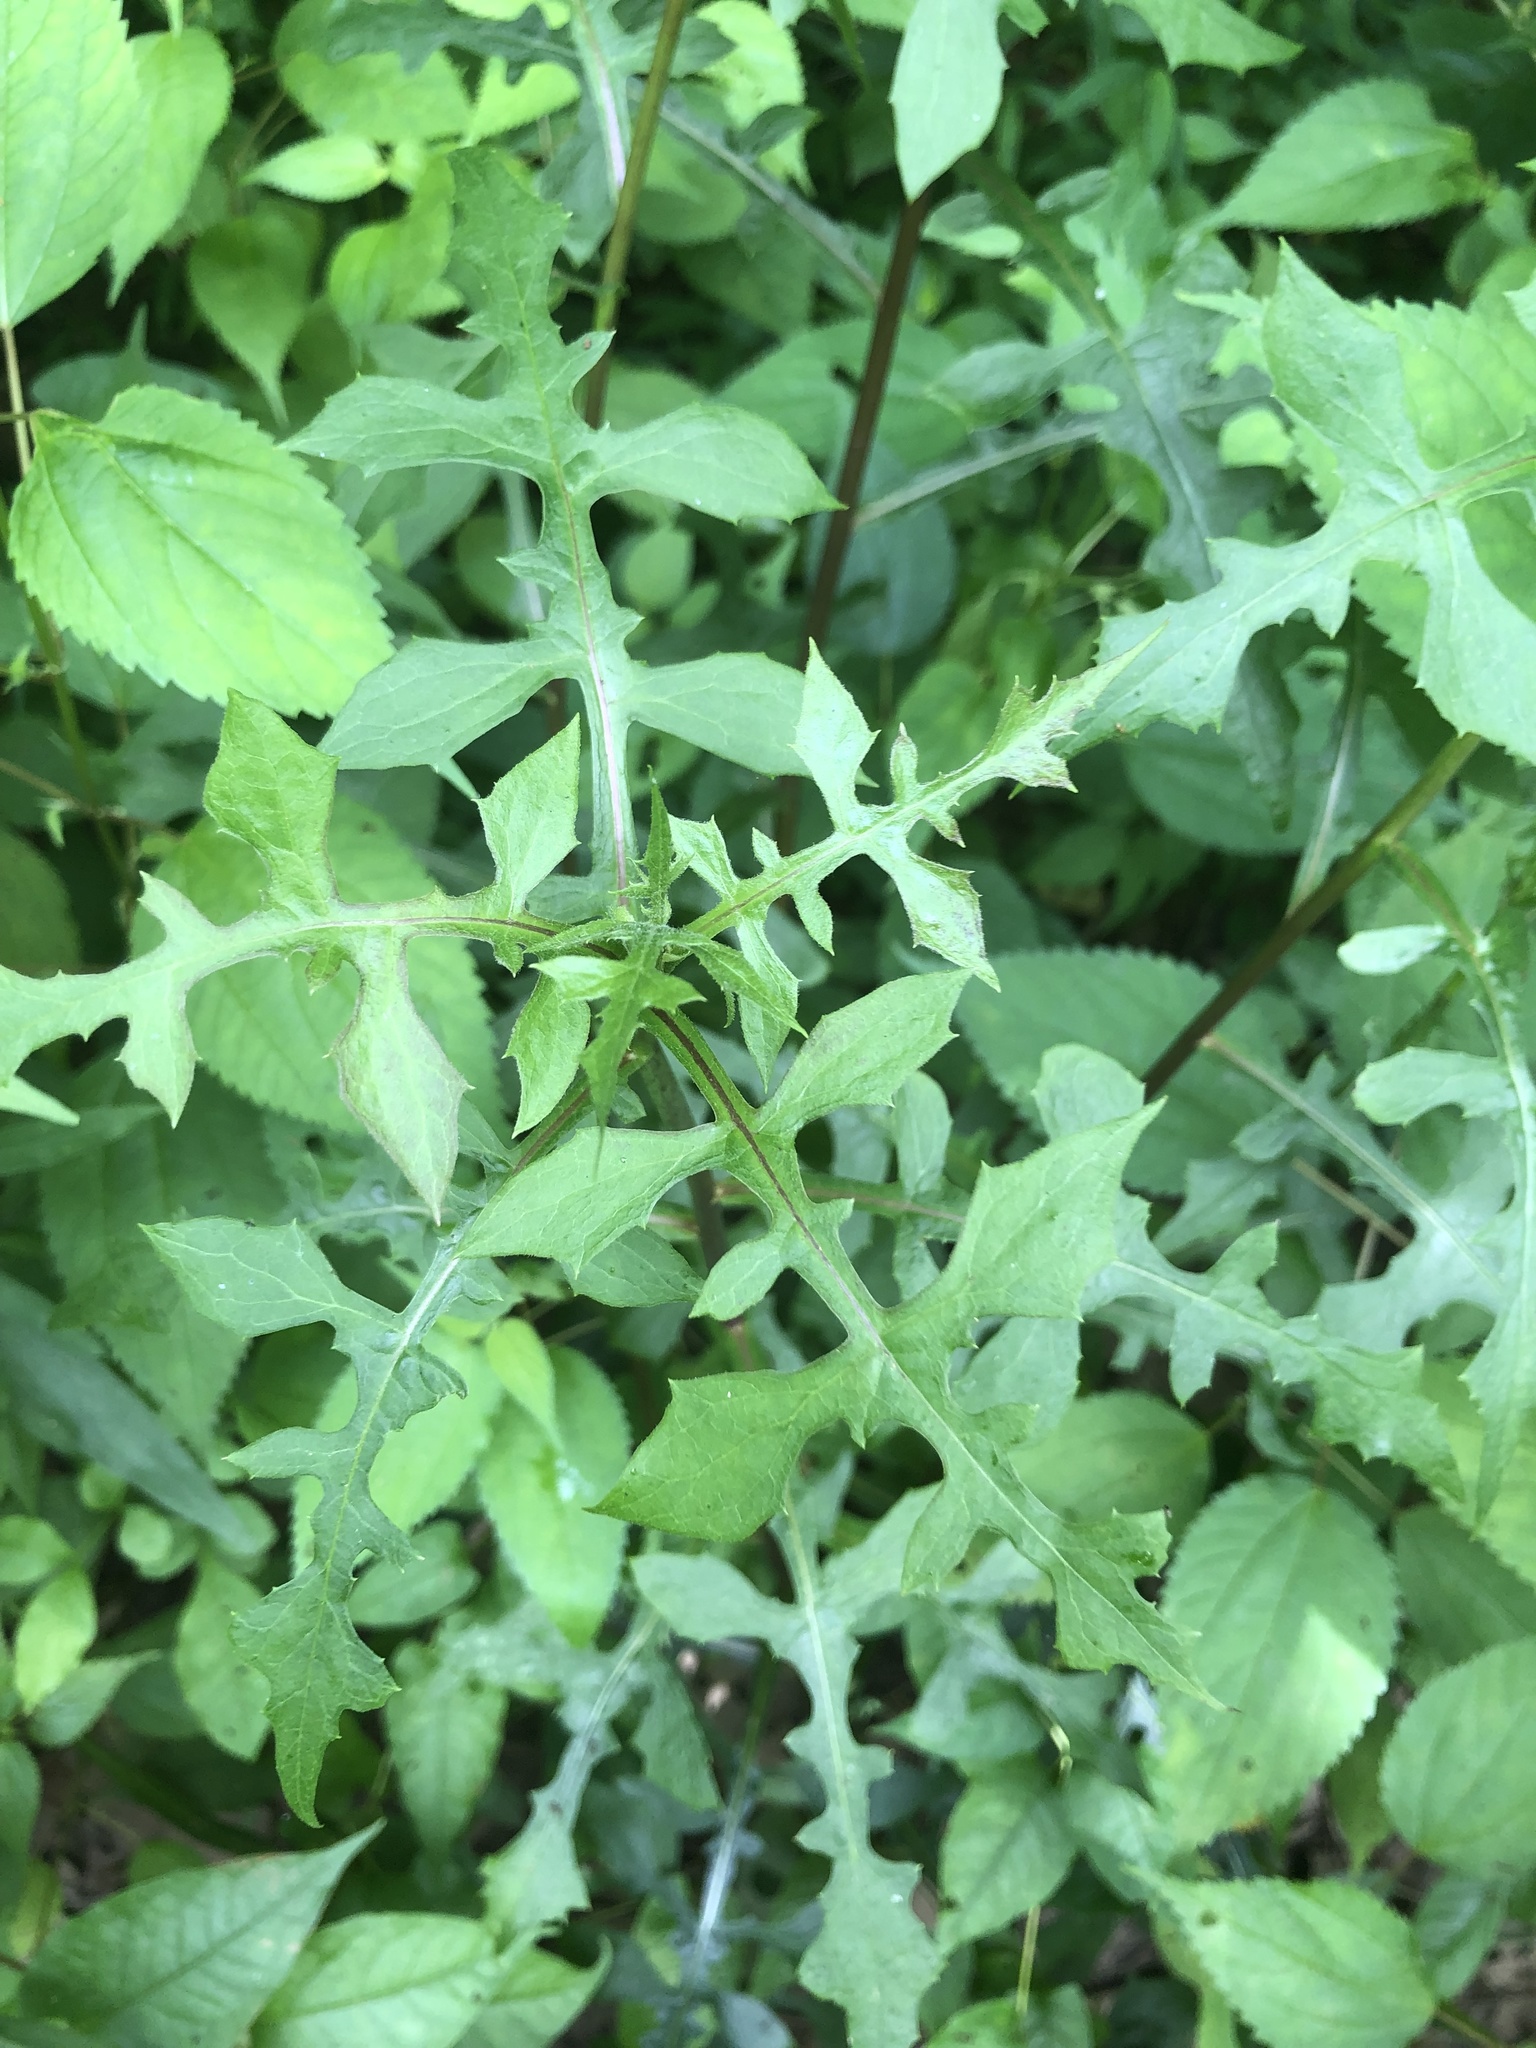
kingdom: Plantae
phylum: Tracheophyta
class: Magnoliopsida
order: Asterales
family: Asteraceae
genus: Lactuca
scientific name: Lactuca hirsuta
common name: Hairy lettuce
